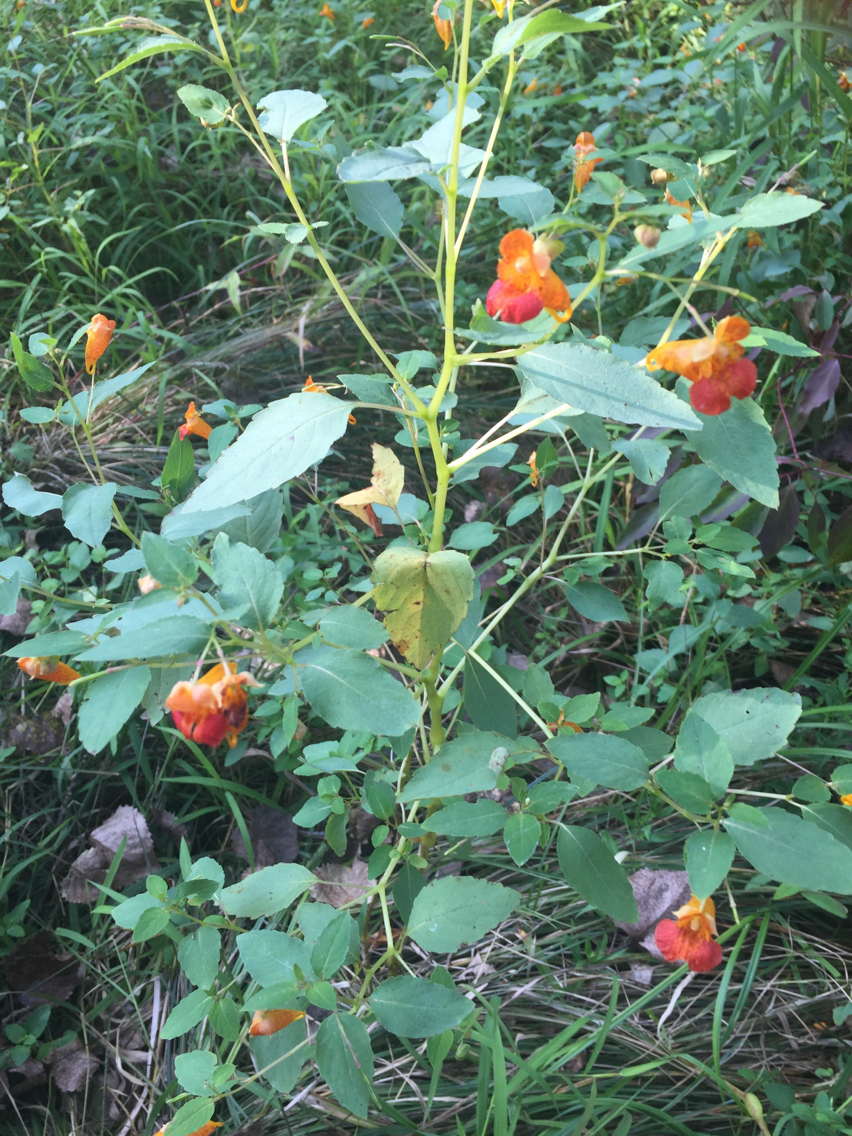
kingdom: Plantae
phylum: Tracheophyta
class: Magnoliopsida
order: Ericales
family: Balsaminaceae
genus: Impatiens
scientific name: Impatiens capensis
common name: Orange balsam
